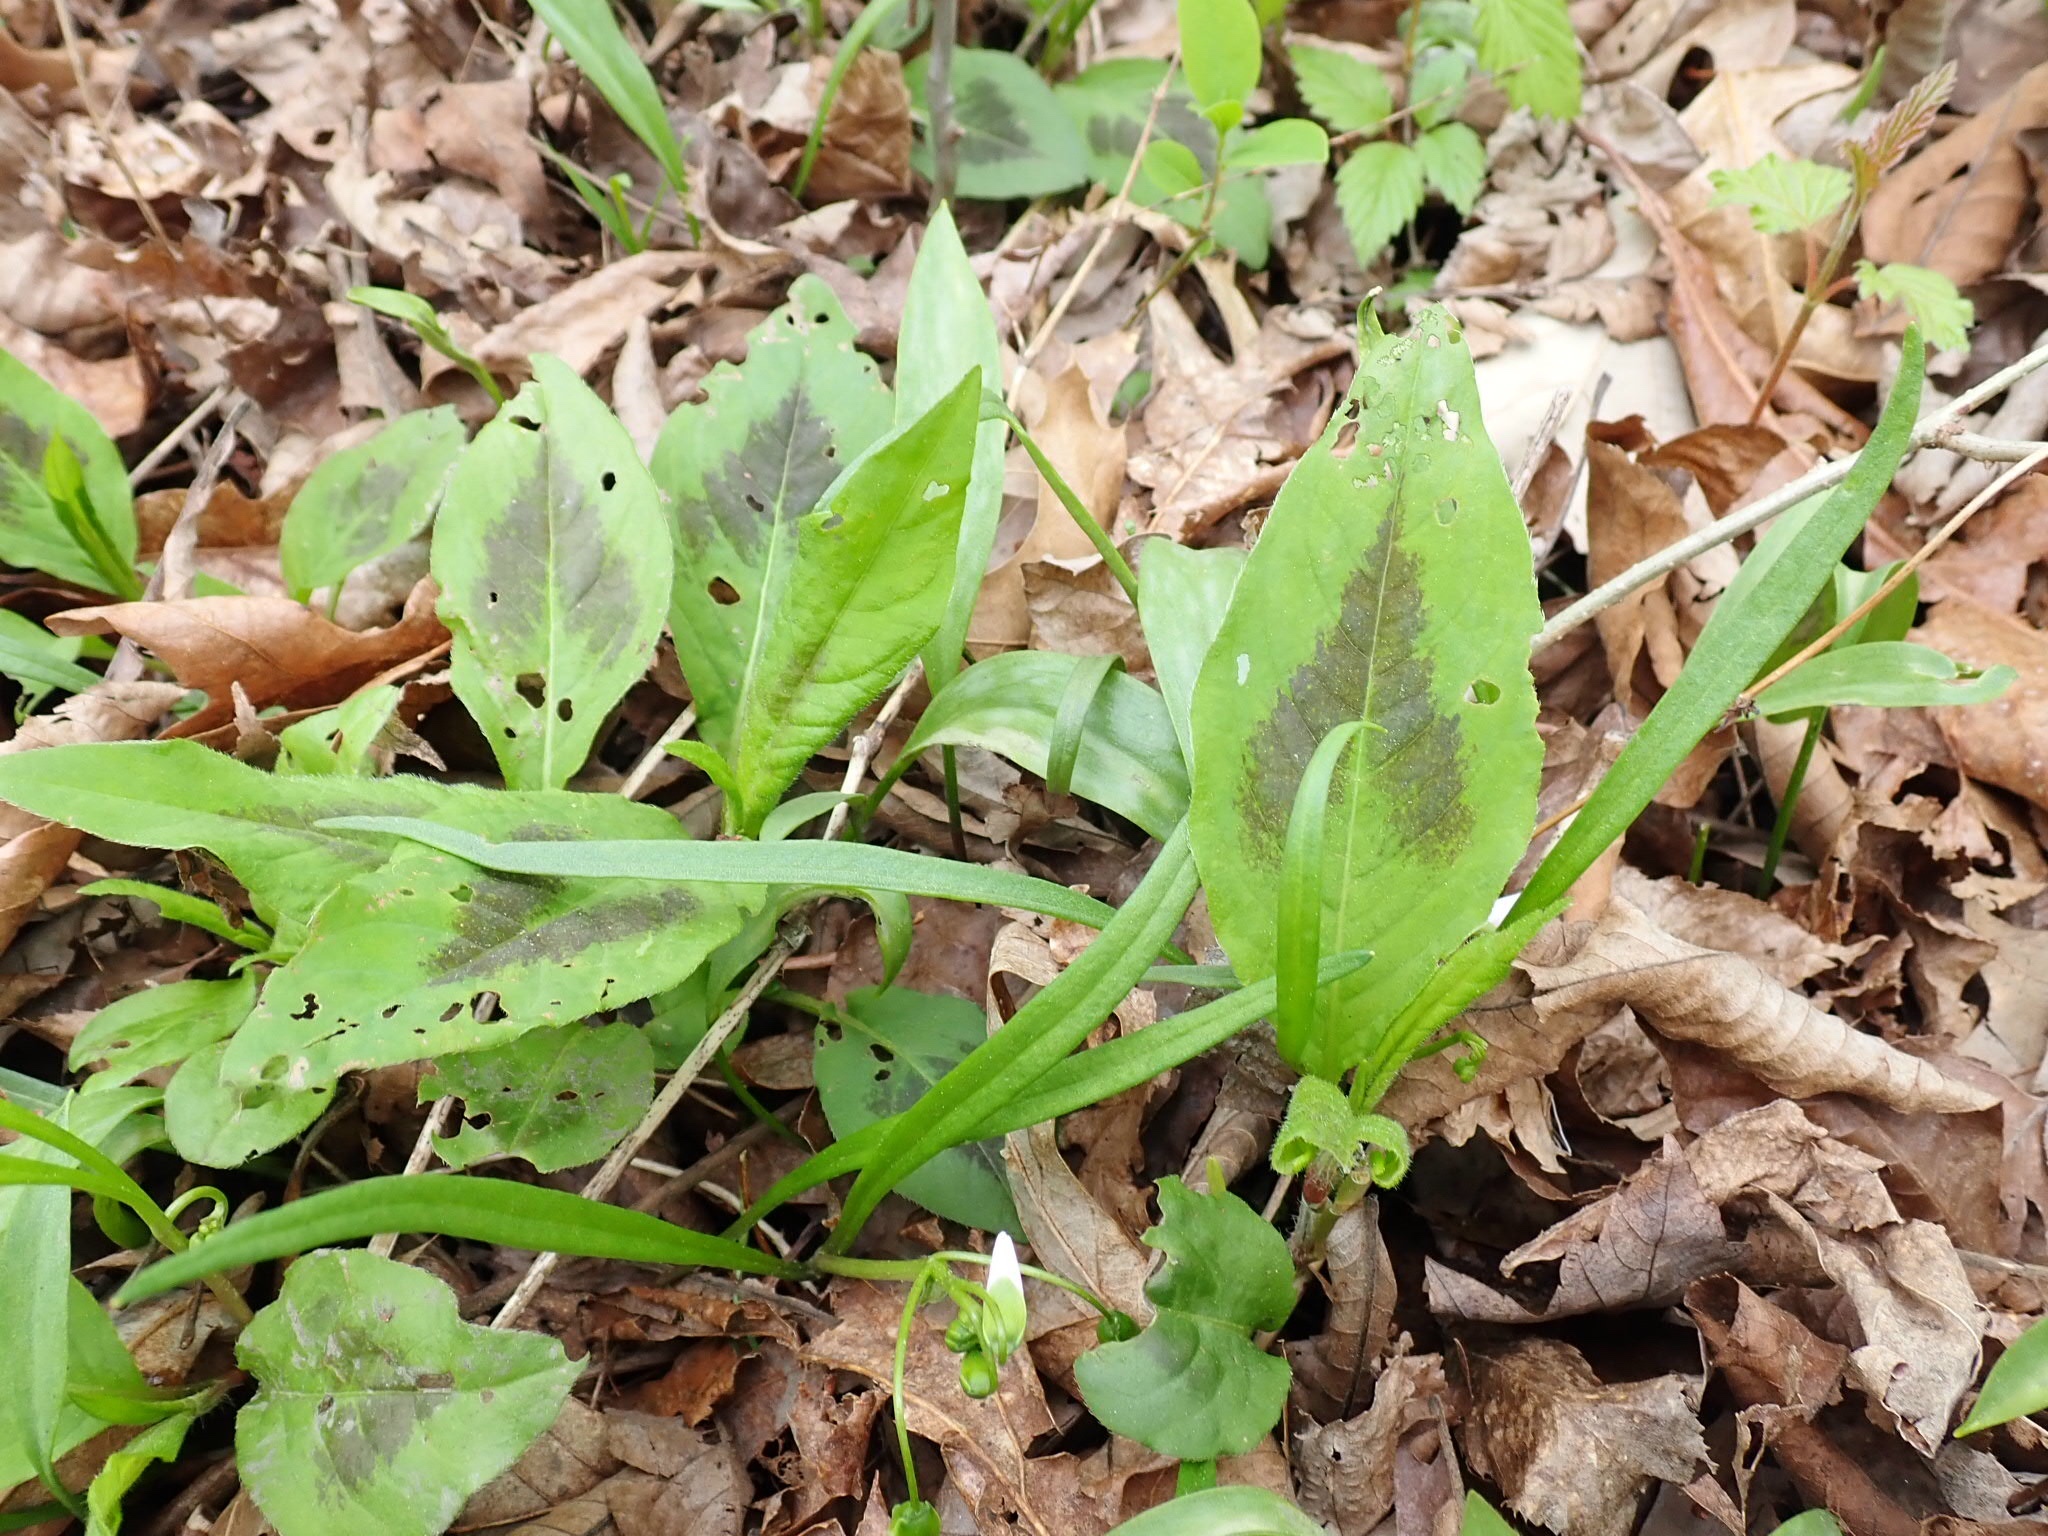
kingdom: Plantae
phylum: Tracheophyta
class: Magnoliopsida
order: Caryophyllales
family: Polygonaceae
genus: Persicaria
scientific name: Persicaria virginiana
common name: Jumpseed
